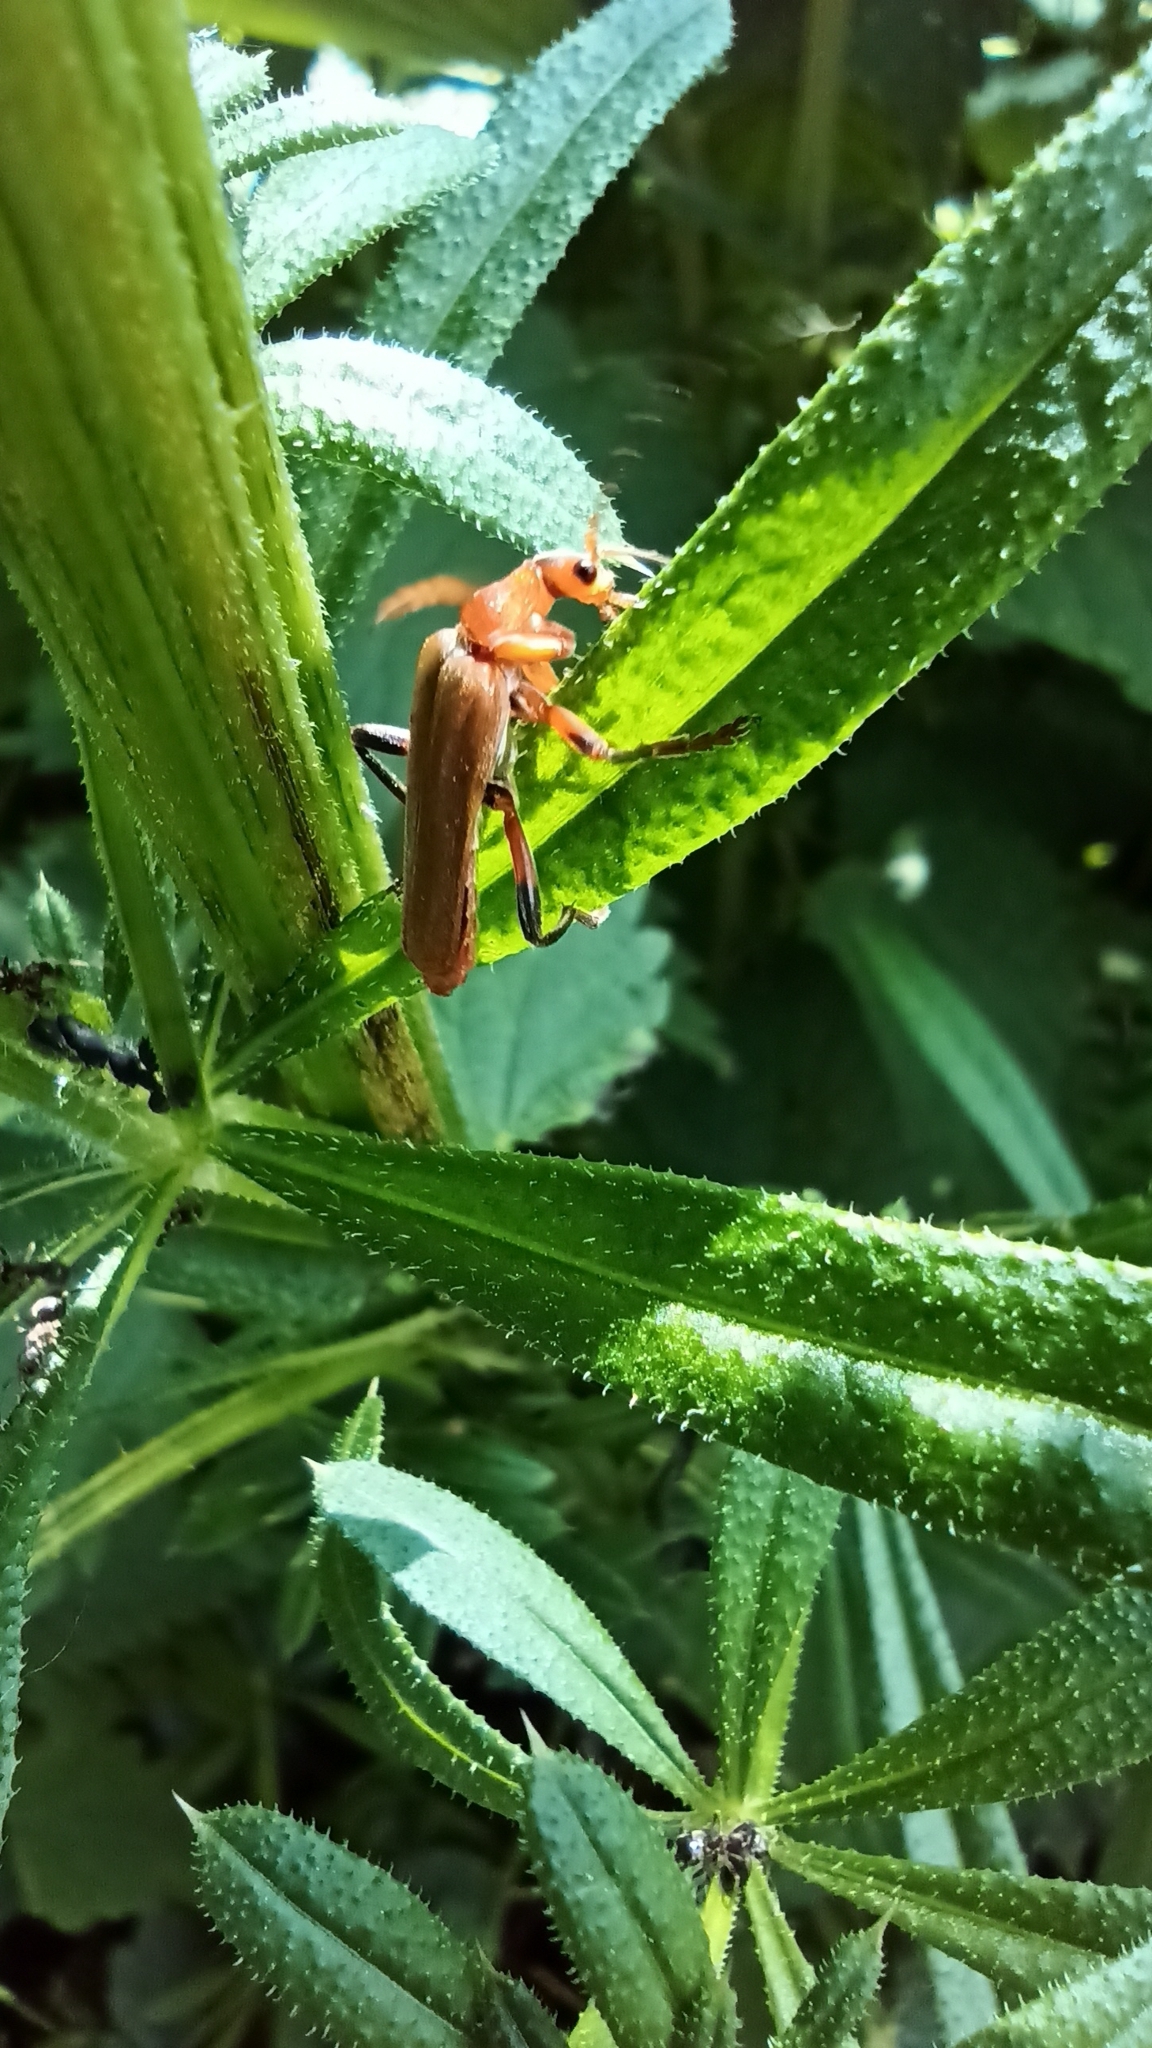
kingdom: Animalia
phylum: Arthropoda
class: Insecta
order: Coleoptera
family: Cantharidae
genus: Cantharis
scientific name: Cantharis livida
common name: Livid soldier beetle
